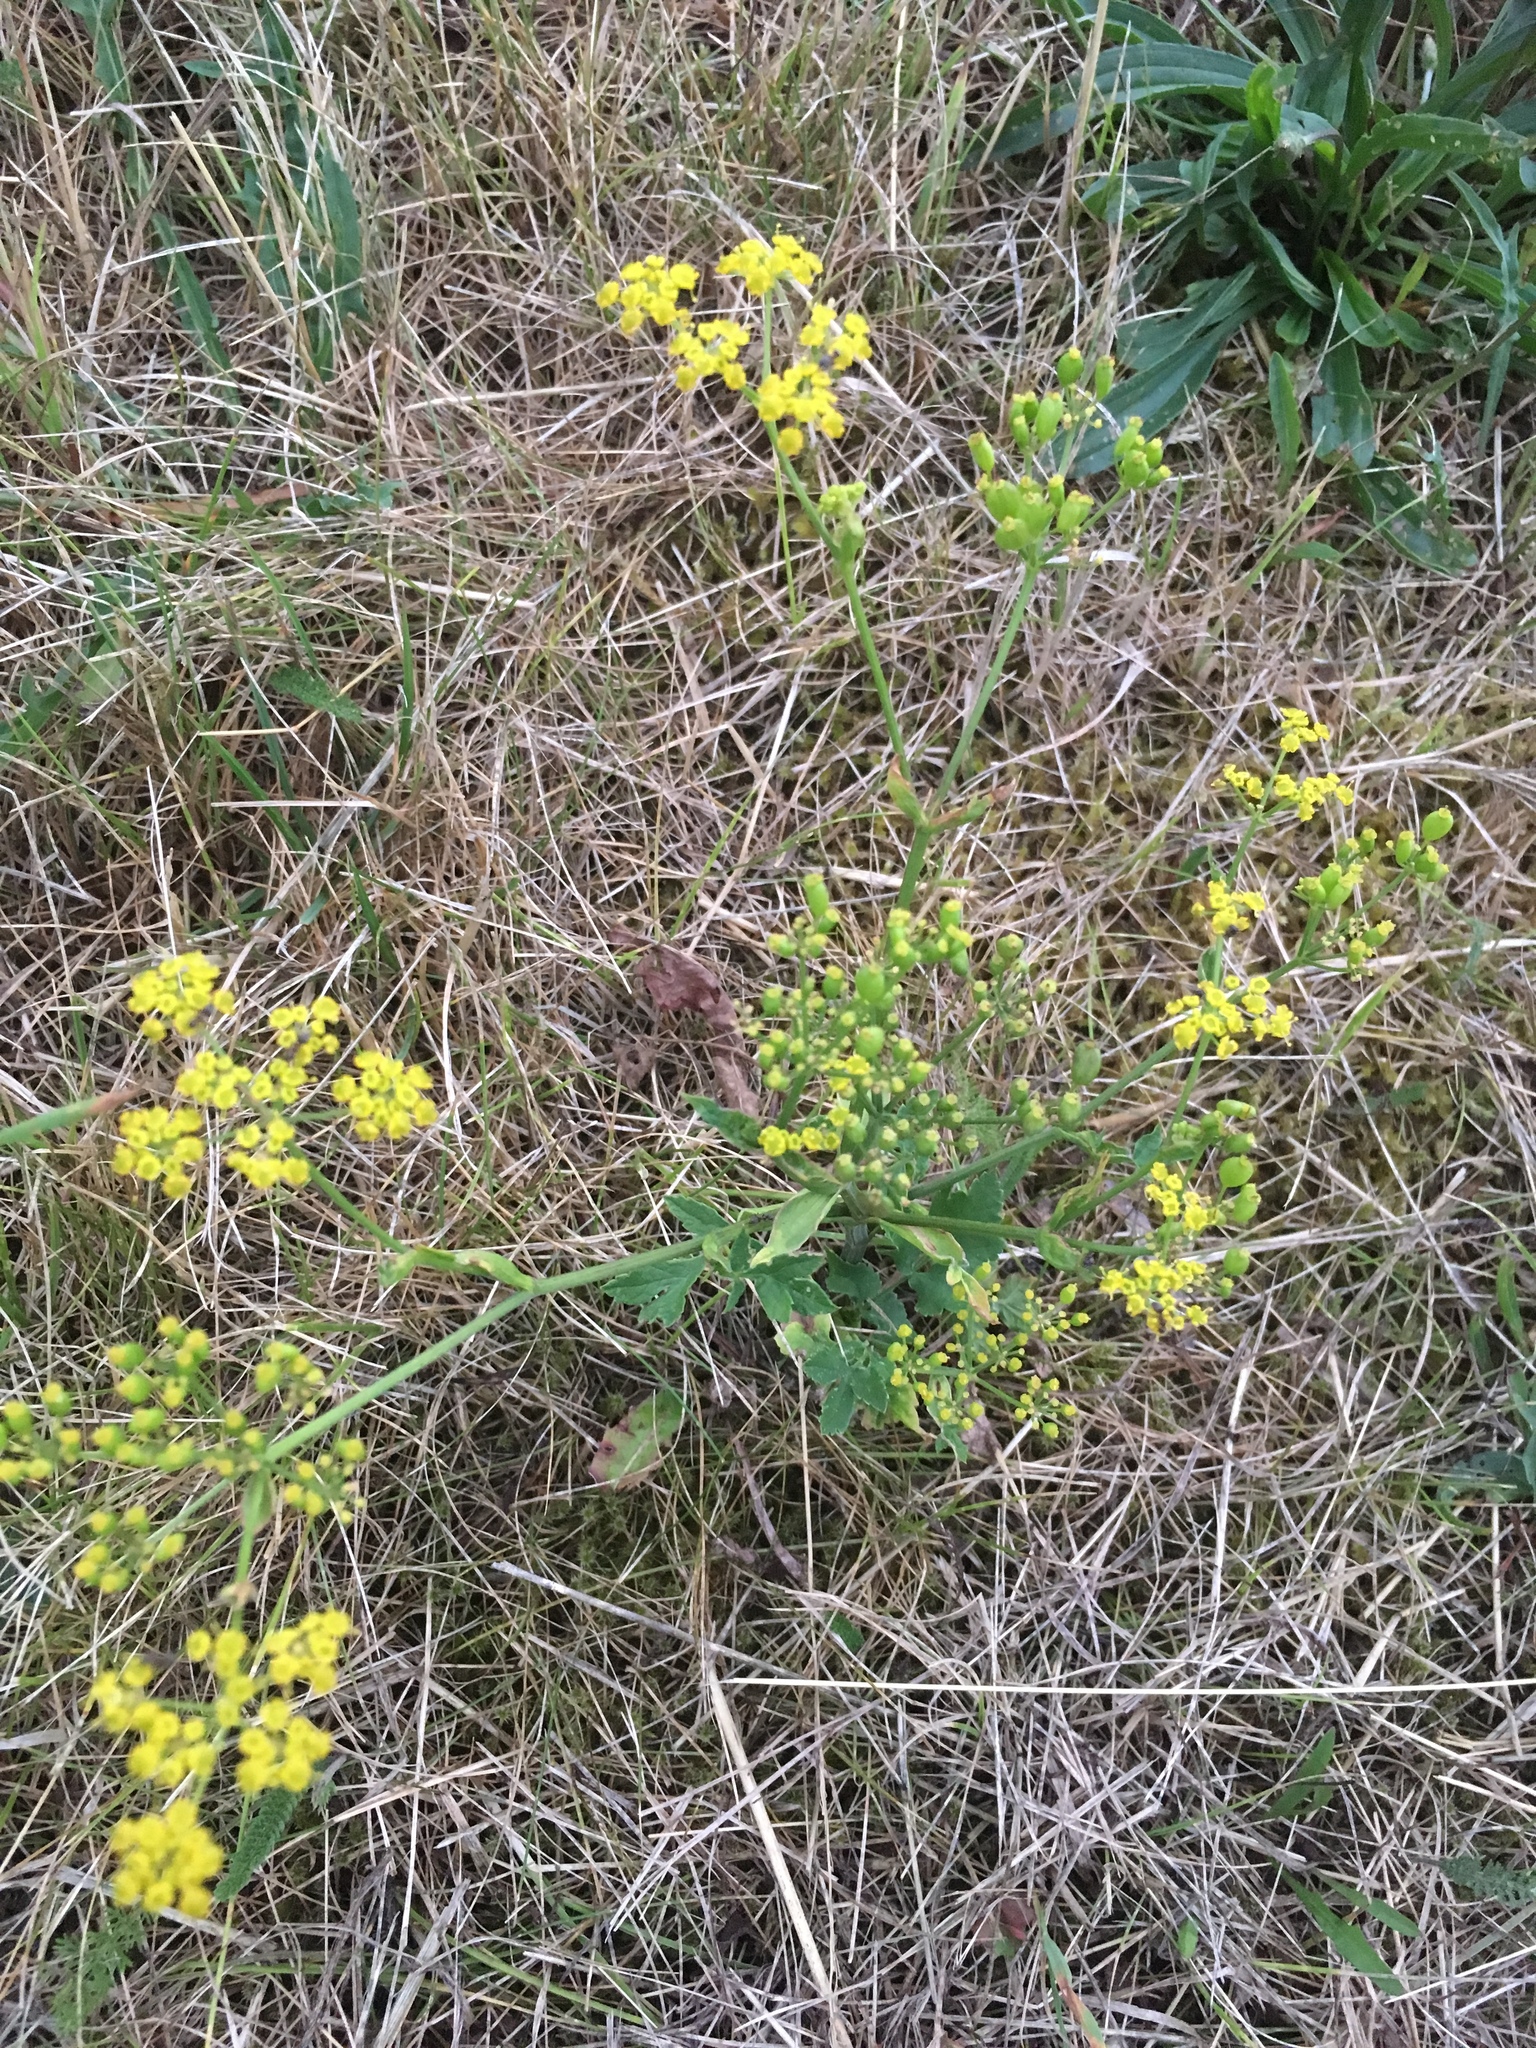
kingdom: Plantae
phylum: Tracheophyta
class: Magnoliopsida
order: Apiales
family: Apiaceae
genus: Pastinaca
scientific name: Pastinaca sativa
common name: Wild parsnip
